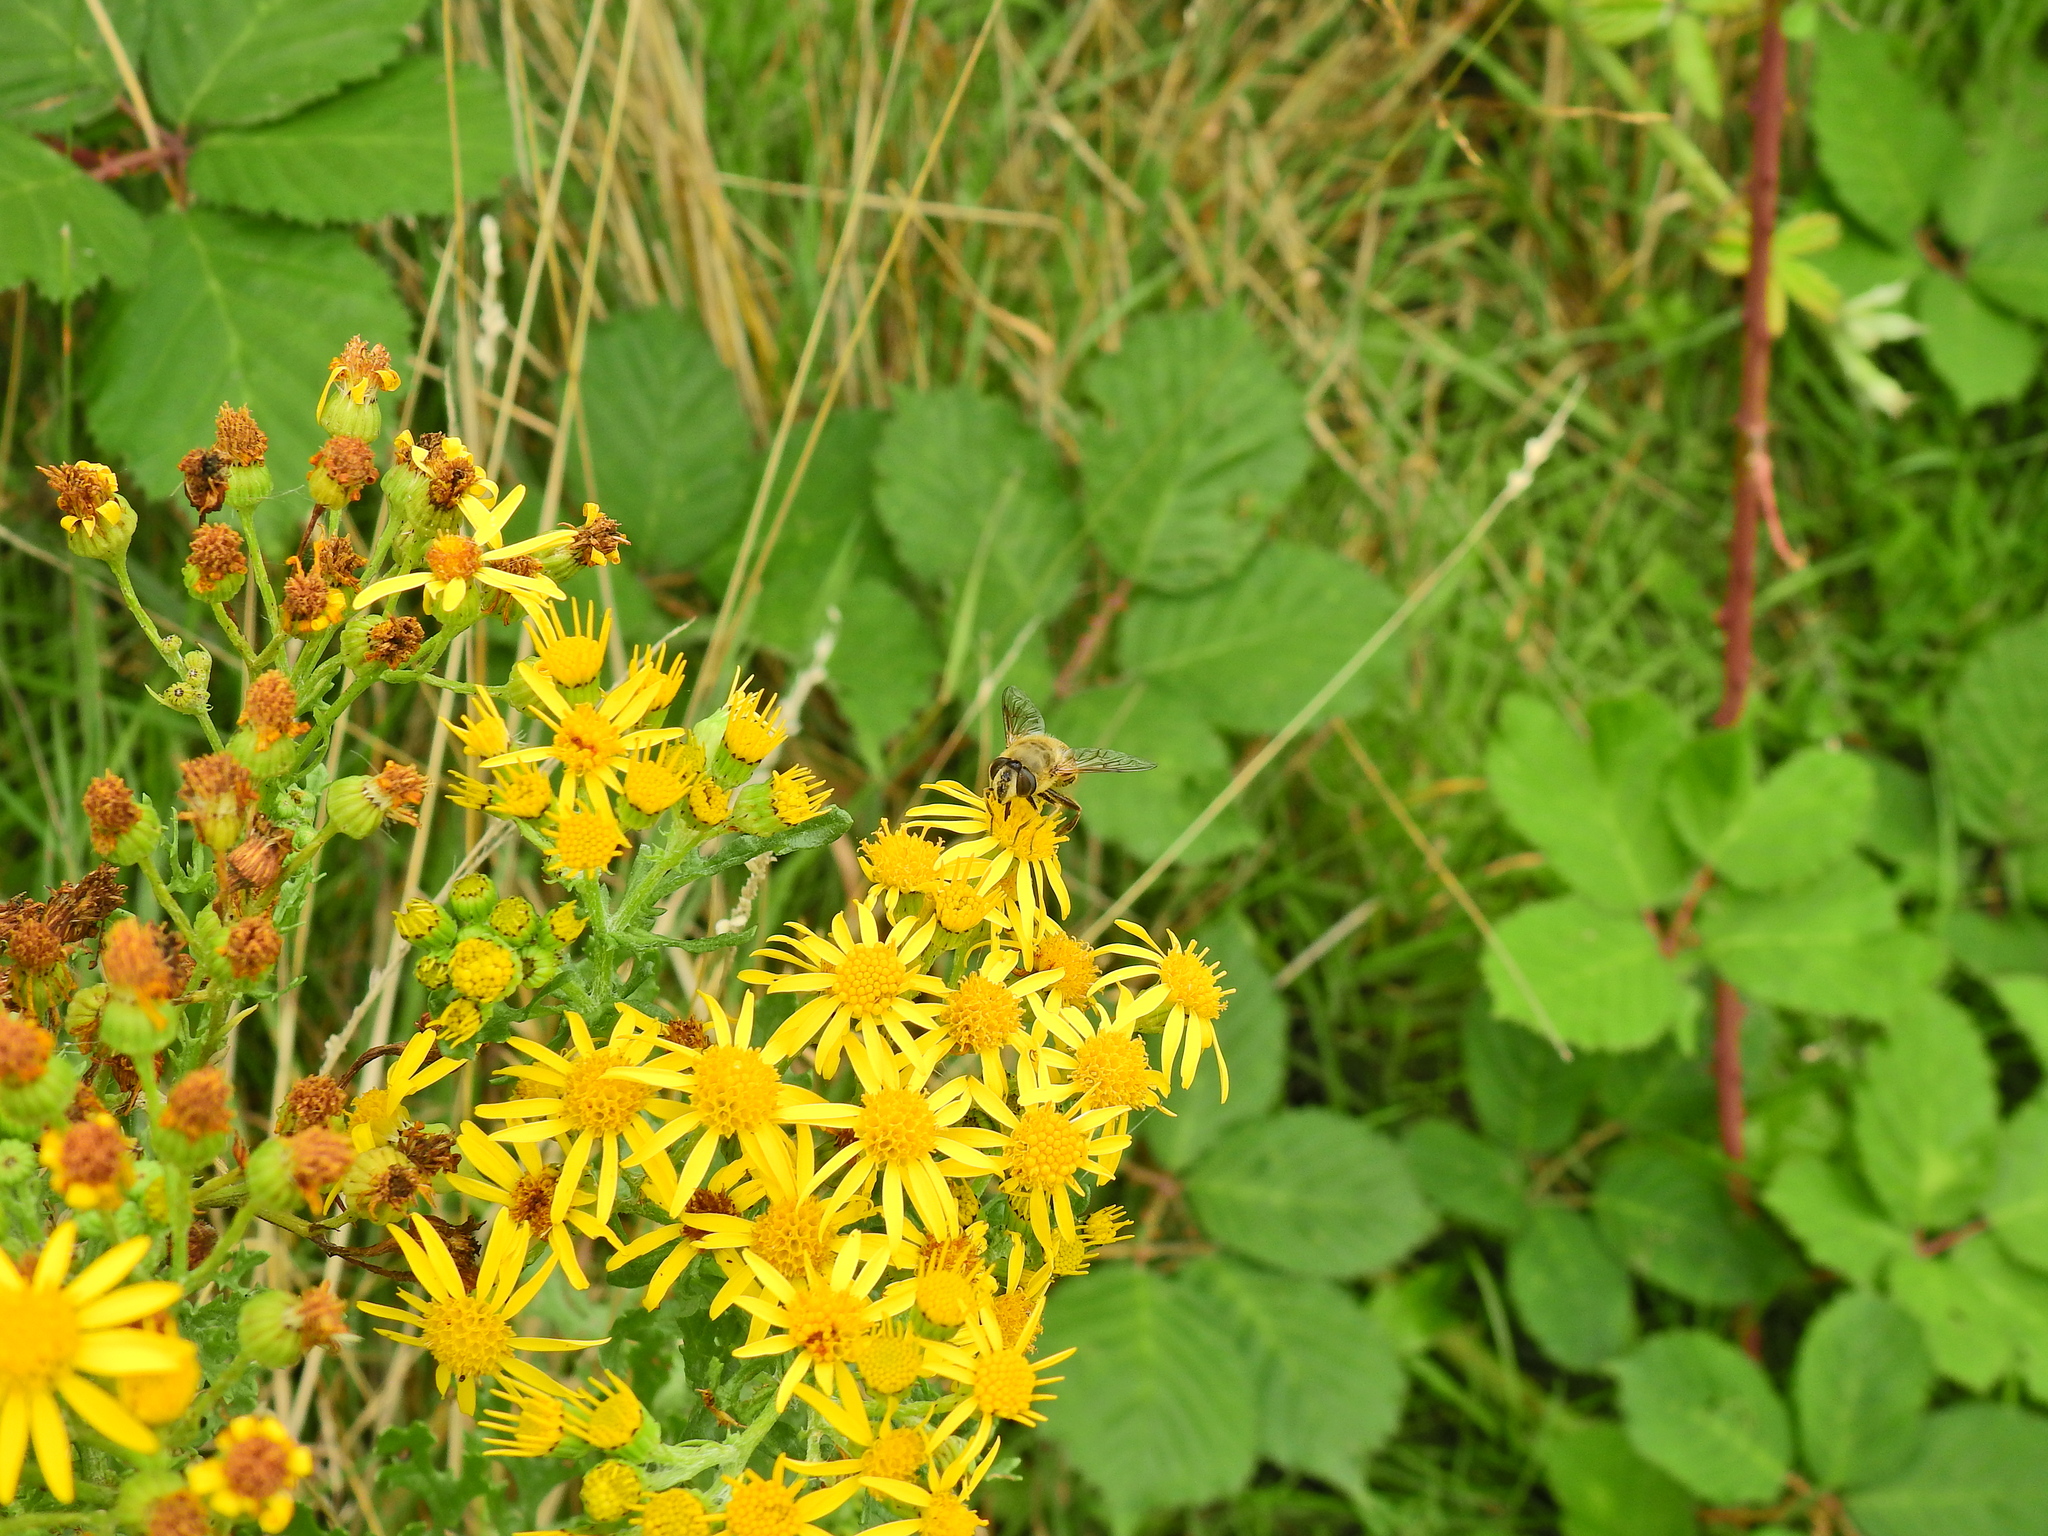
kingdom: Plantae
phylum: Tracheophyta
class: Magnoliopsida
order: Asterales
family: Asteraceae
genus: Jacobaea
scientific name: Jacobaea vulgaris
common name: Stinking willie
